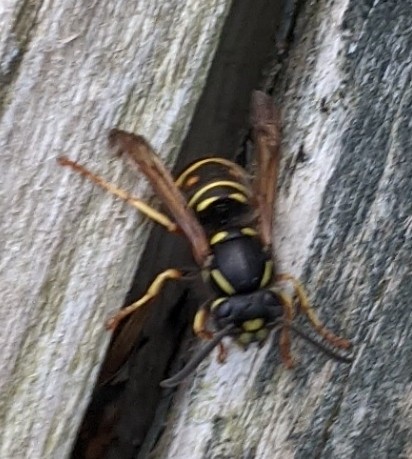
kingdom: Animalia
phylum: Arthropoda
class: Insecta
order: Hymenoptera
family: Vespidae
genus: Vespula
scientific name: Vespula acadica
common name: Forest yellowjacket
